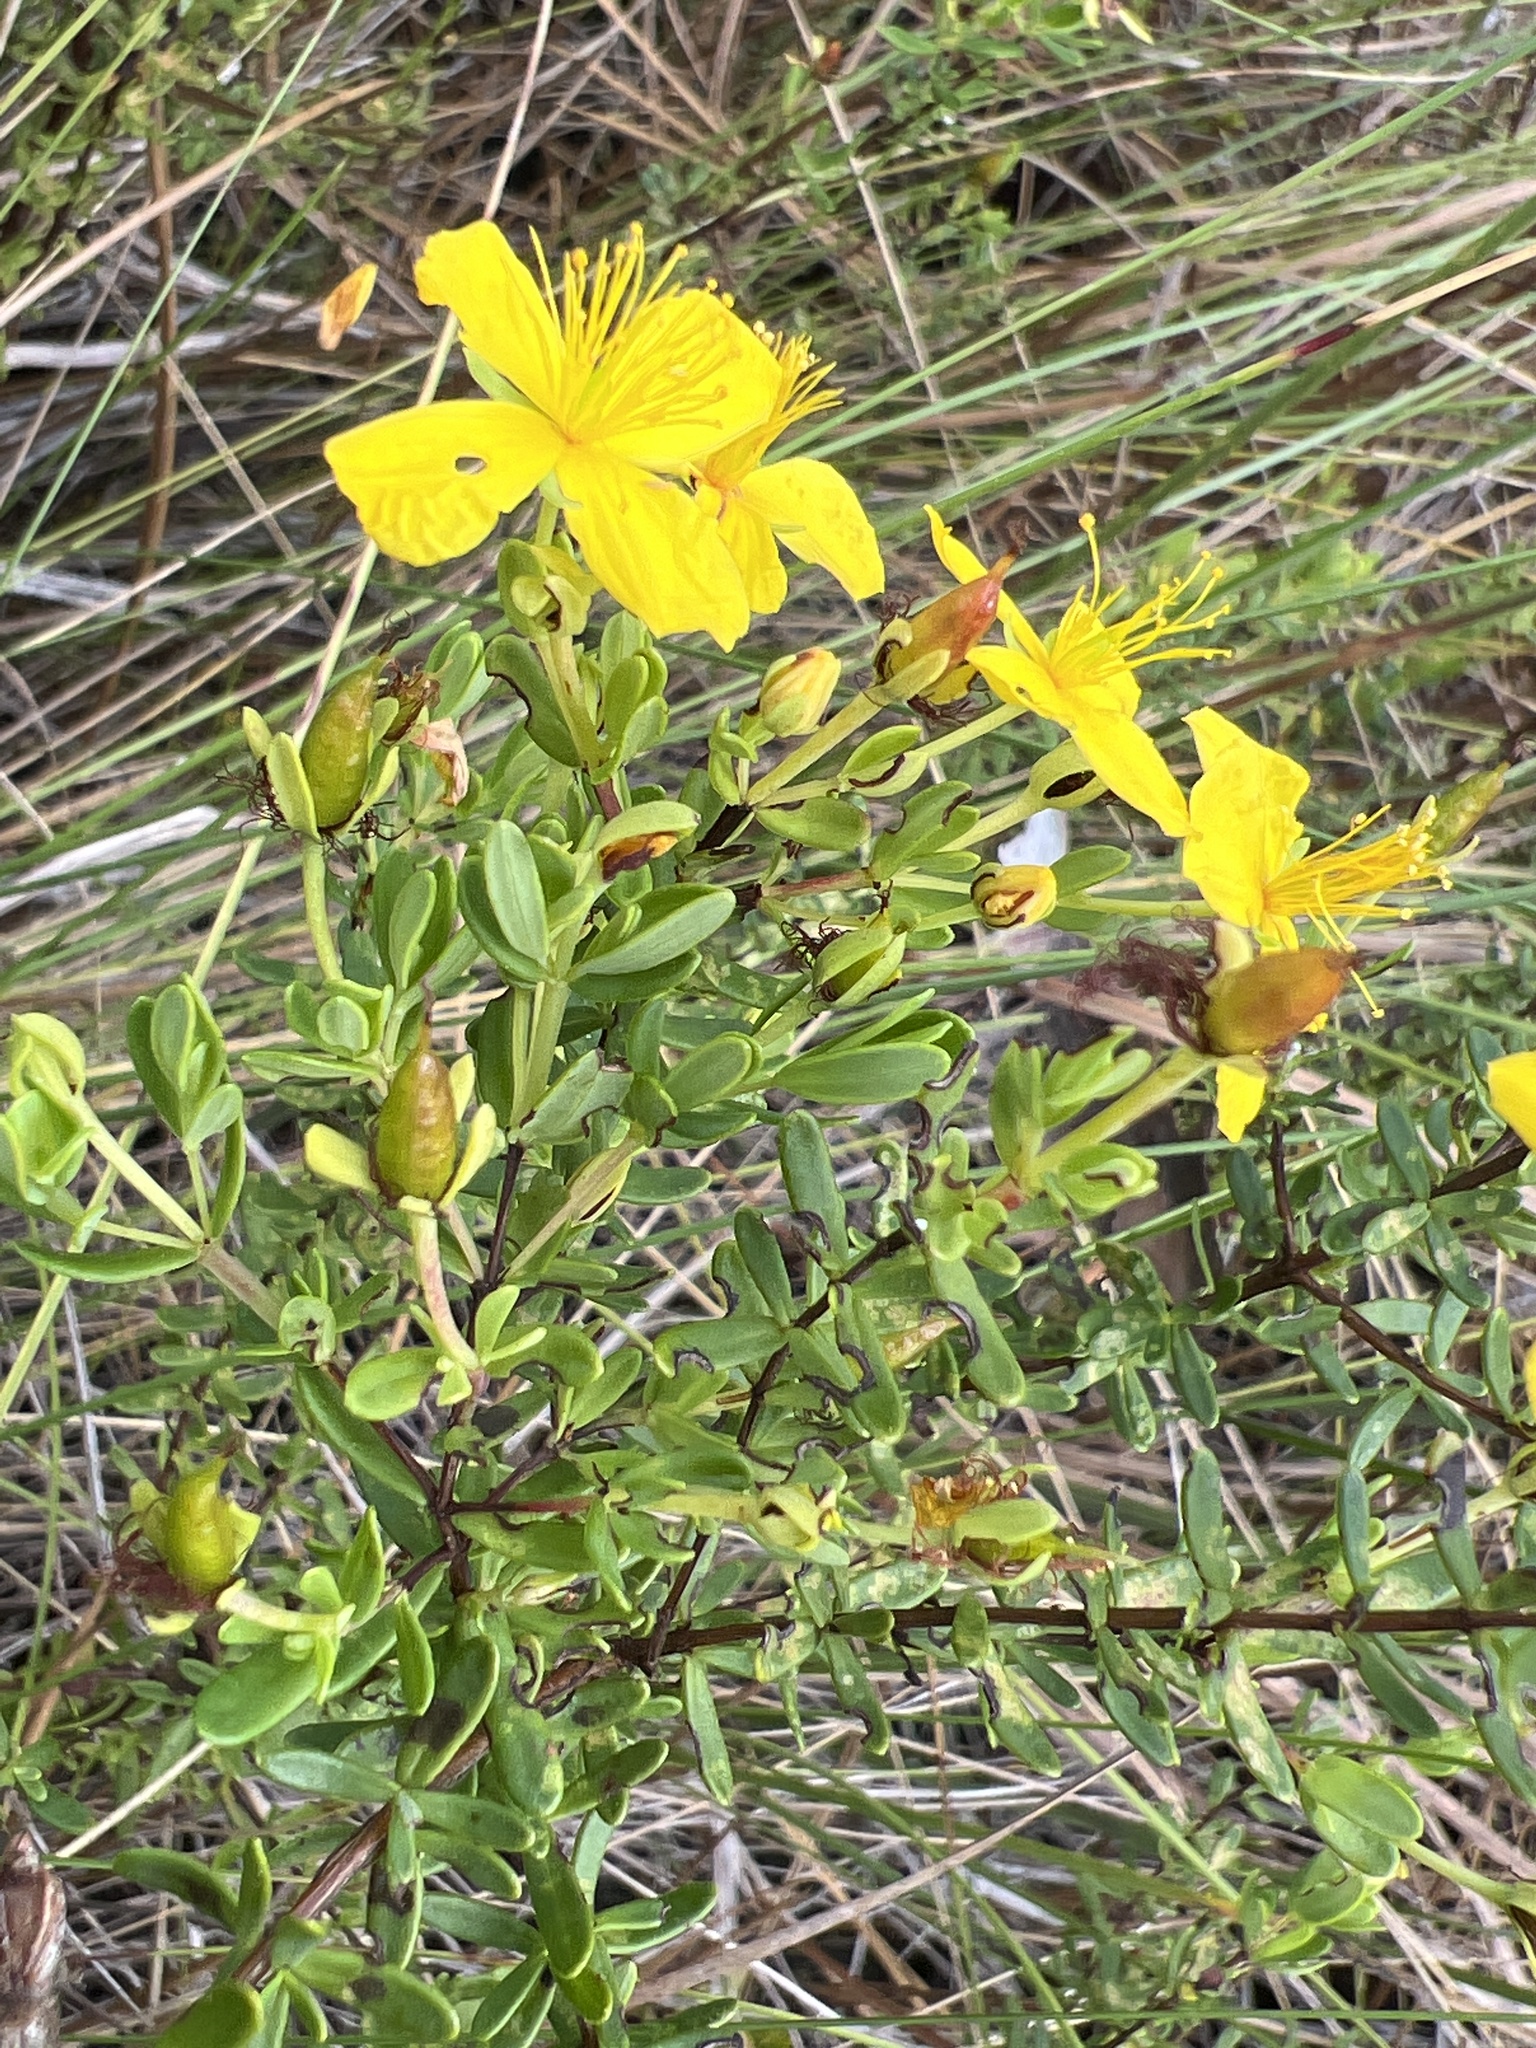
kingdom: Plantae
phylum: Tracheophyta
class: Magnoliopsida
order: Malpighiales
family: Hypericaceae
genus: Hypericum
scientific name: Hypericum microsepalum
